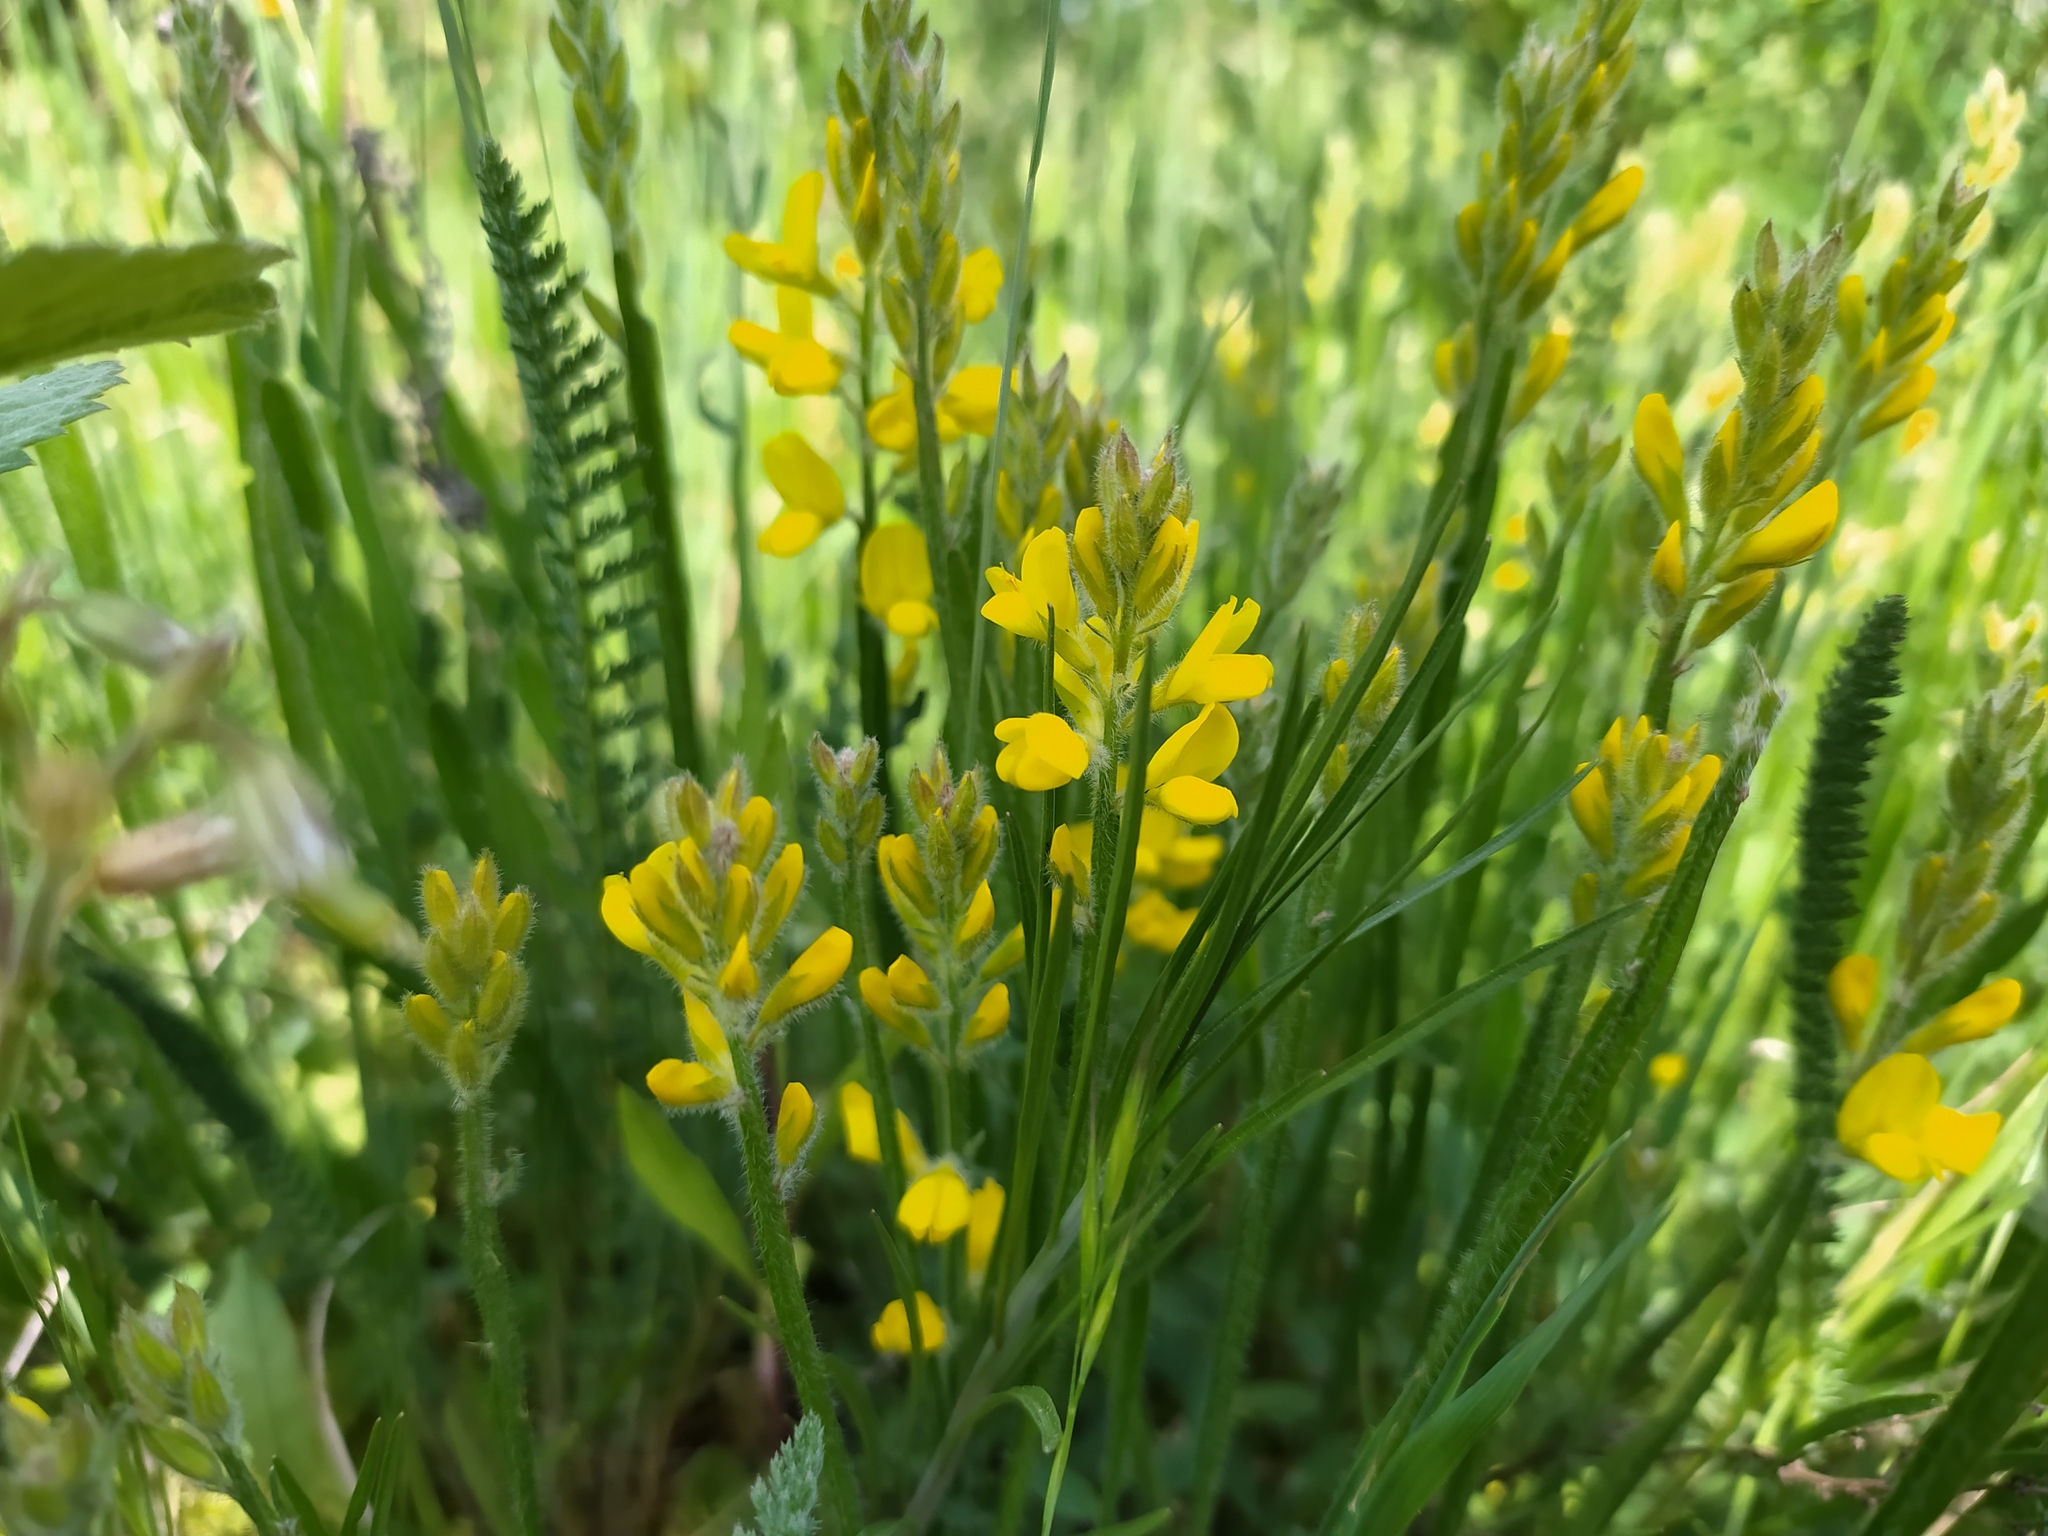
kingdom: Plantae
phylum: Tracheophyta
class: Magnoliopsida
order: Fabales
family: Fabaceae
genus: Genista
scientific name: Genista sagittalis
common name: Winged greenweed
